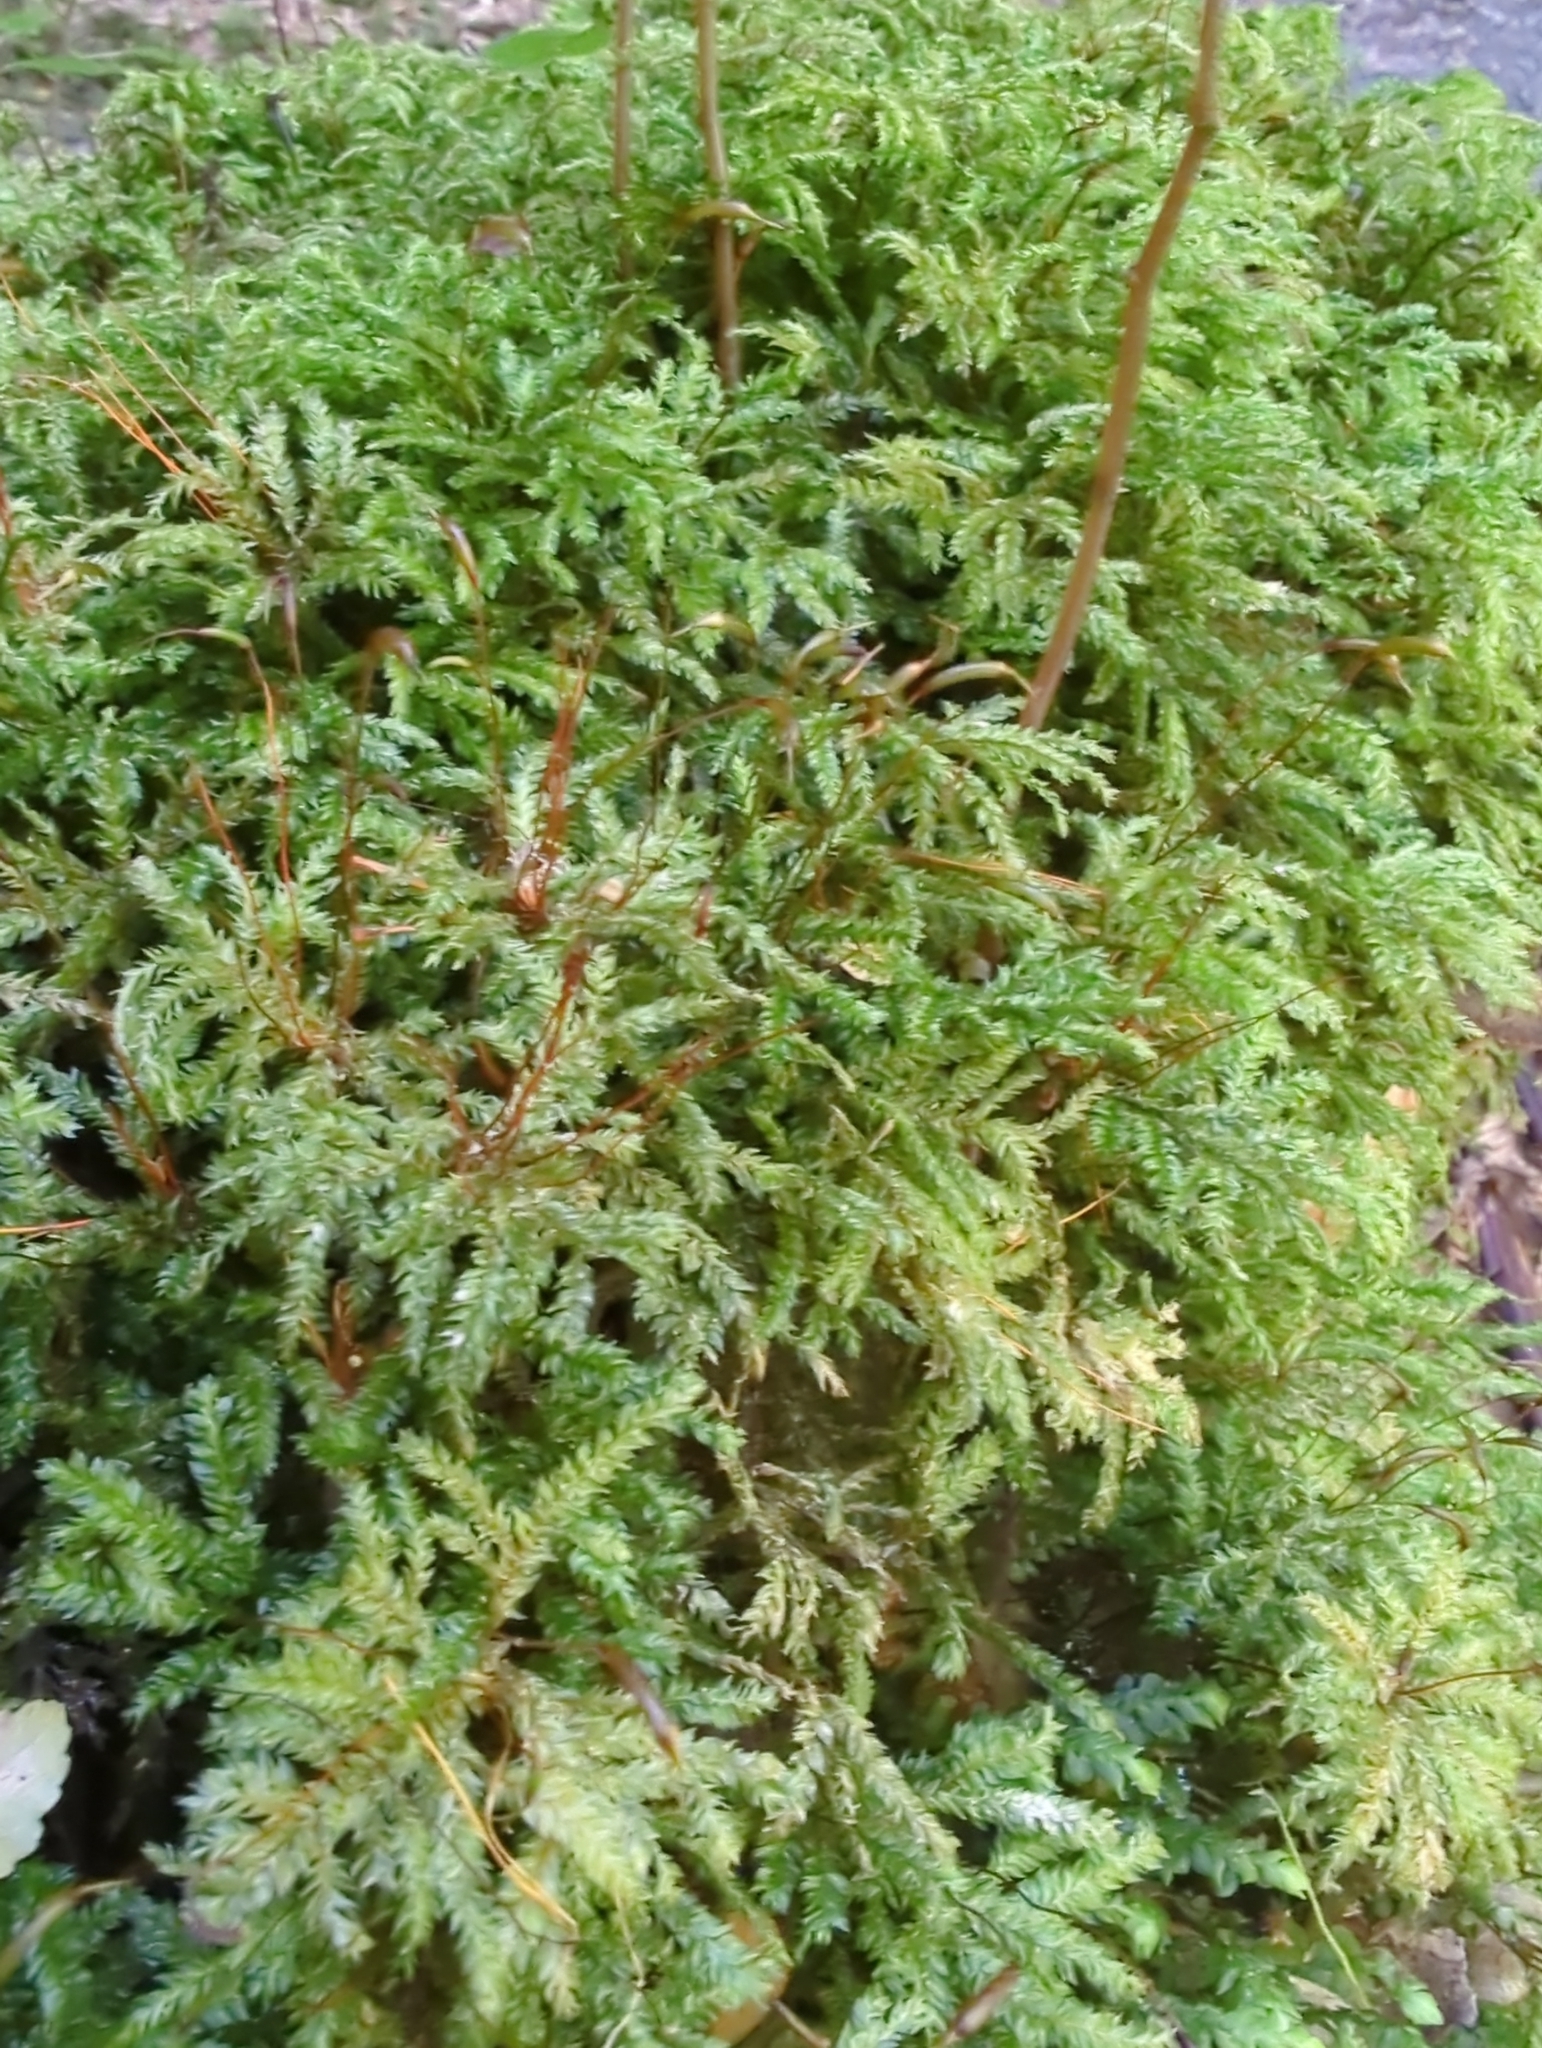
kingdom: Plantae
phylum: Bryophyta
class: Bryopsida
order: Hypnodendrales
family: Spiridentaceae
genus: Hypnodendron
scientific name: Hypnodendron vitiense
